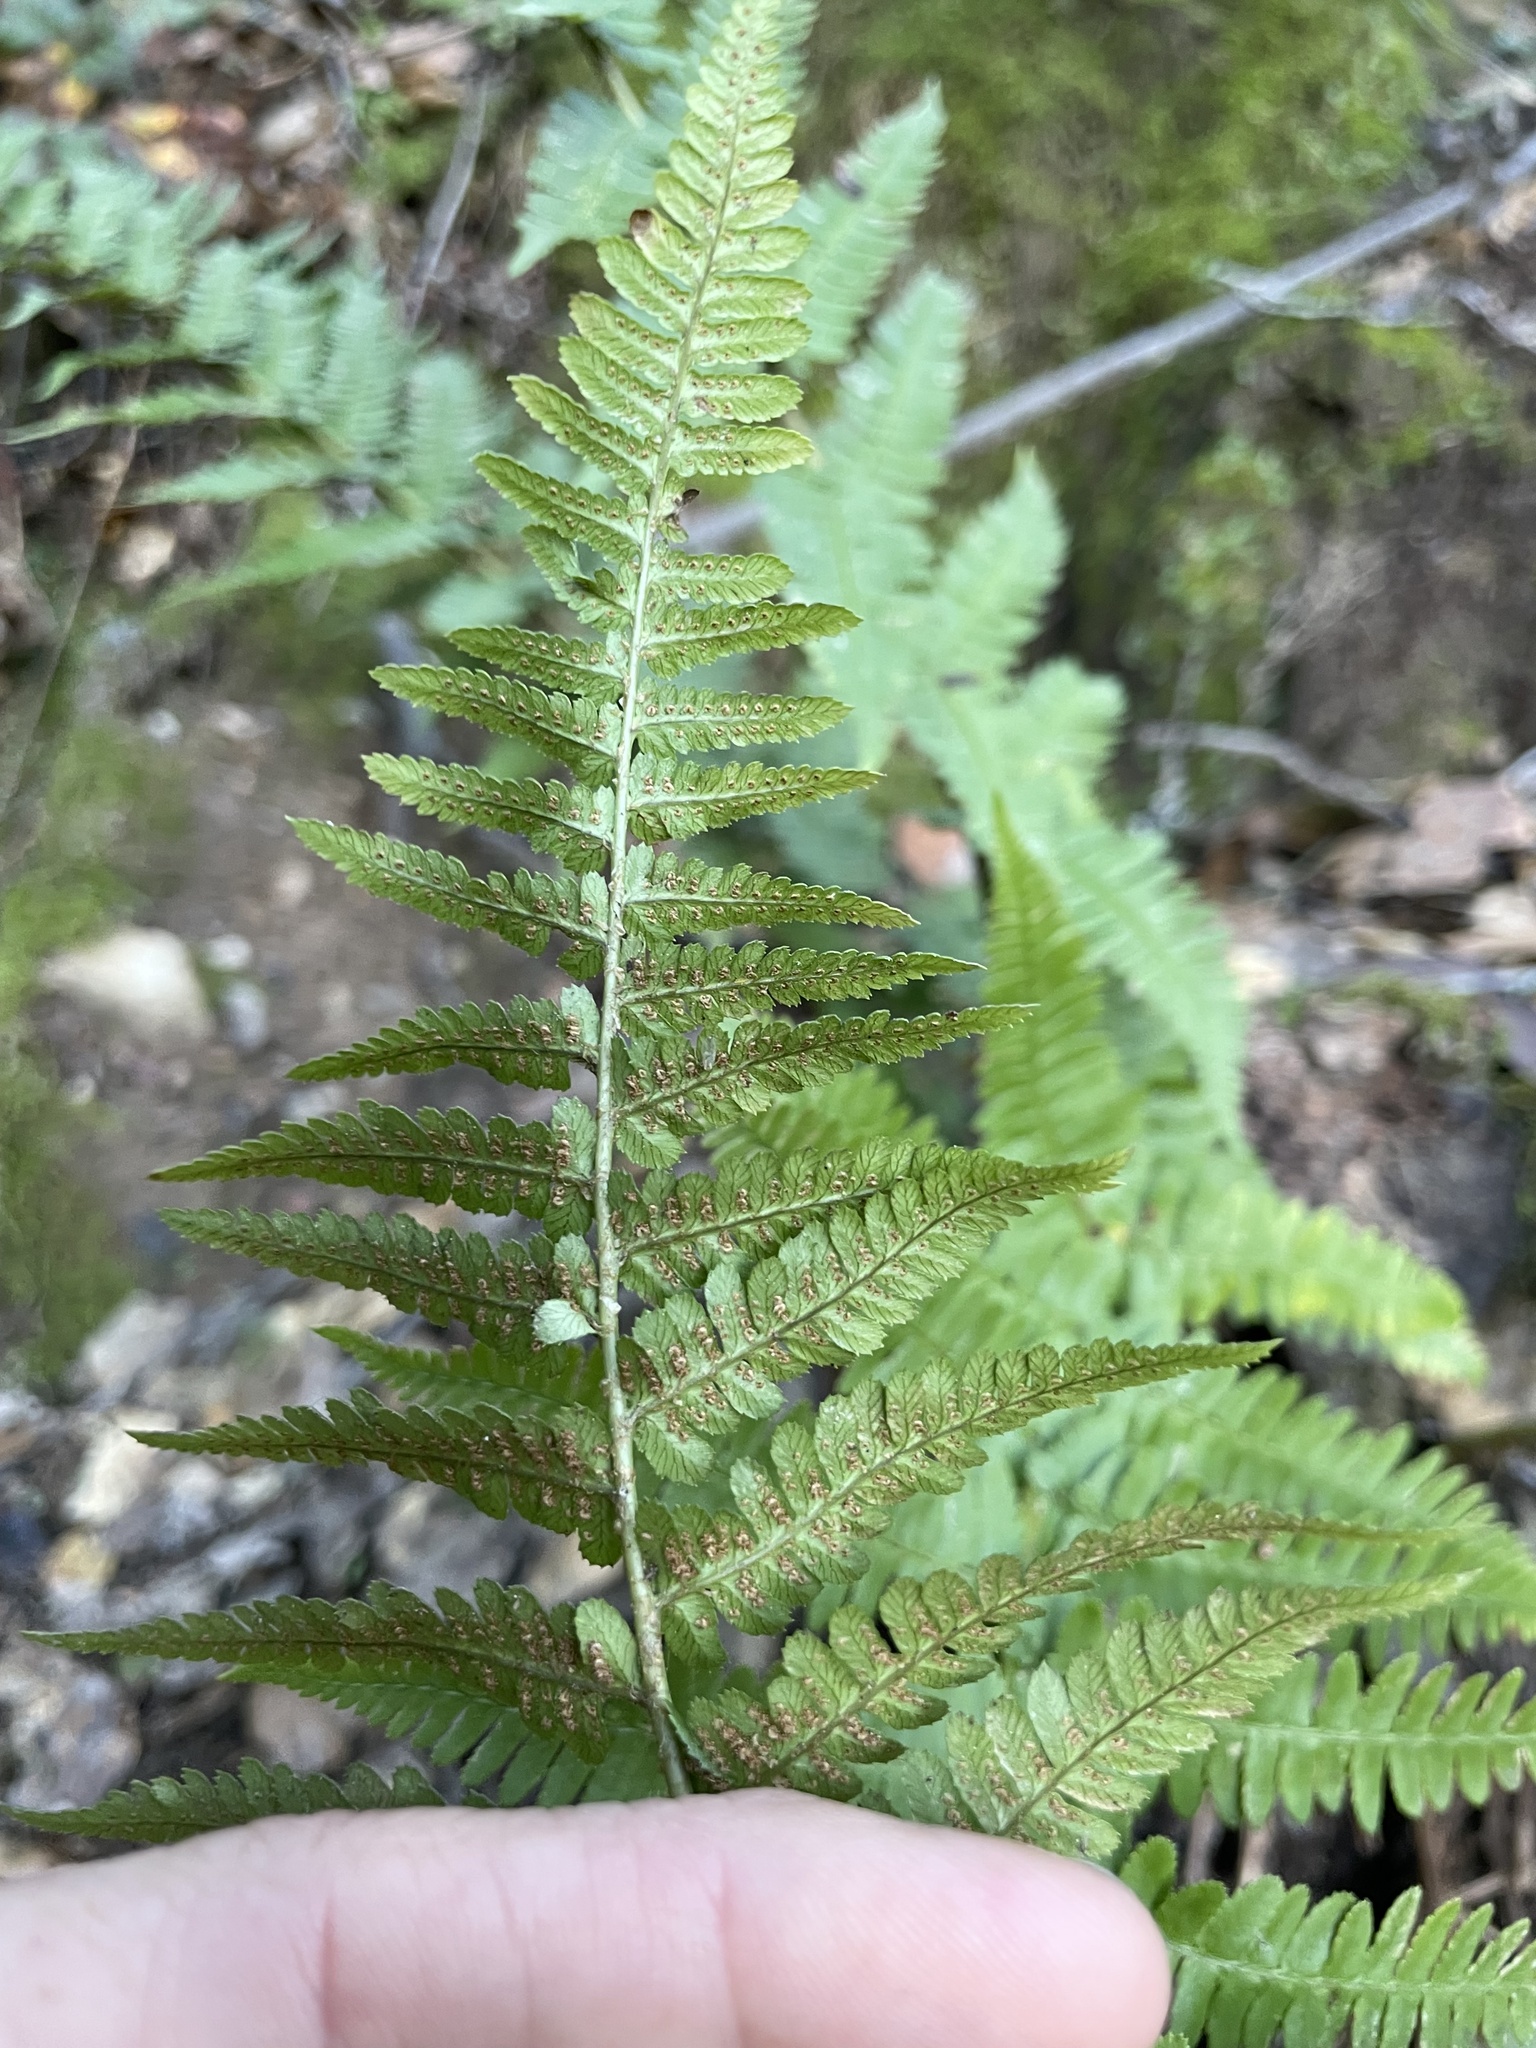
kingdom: Plantae
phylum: Tracheophyta
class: Polypodiopsida
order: Polypodiales
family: Dryopteridaceae
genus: Dryopteris
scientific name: Dryopteris arguta
